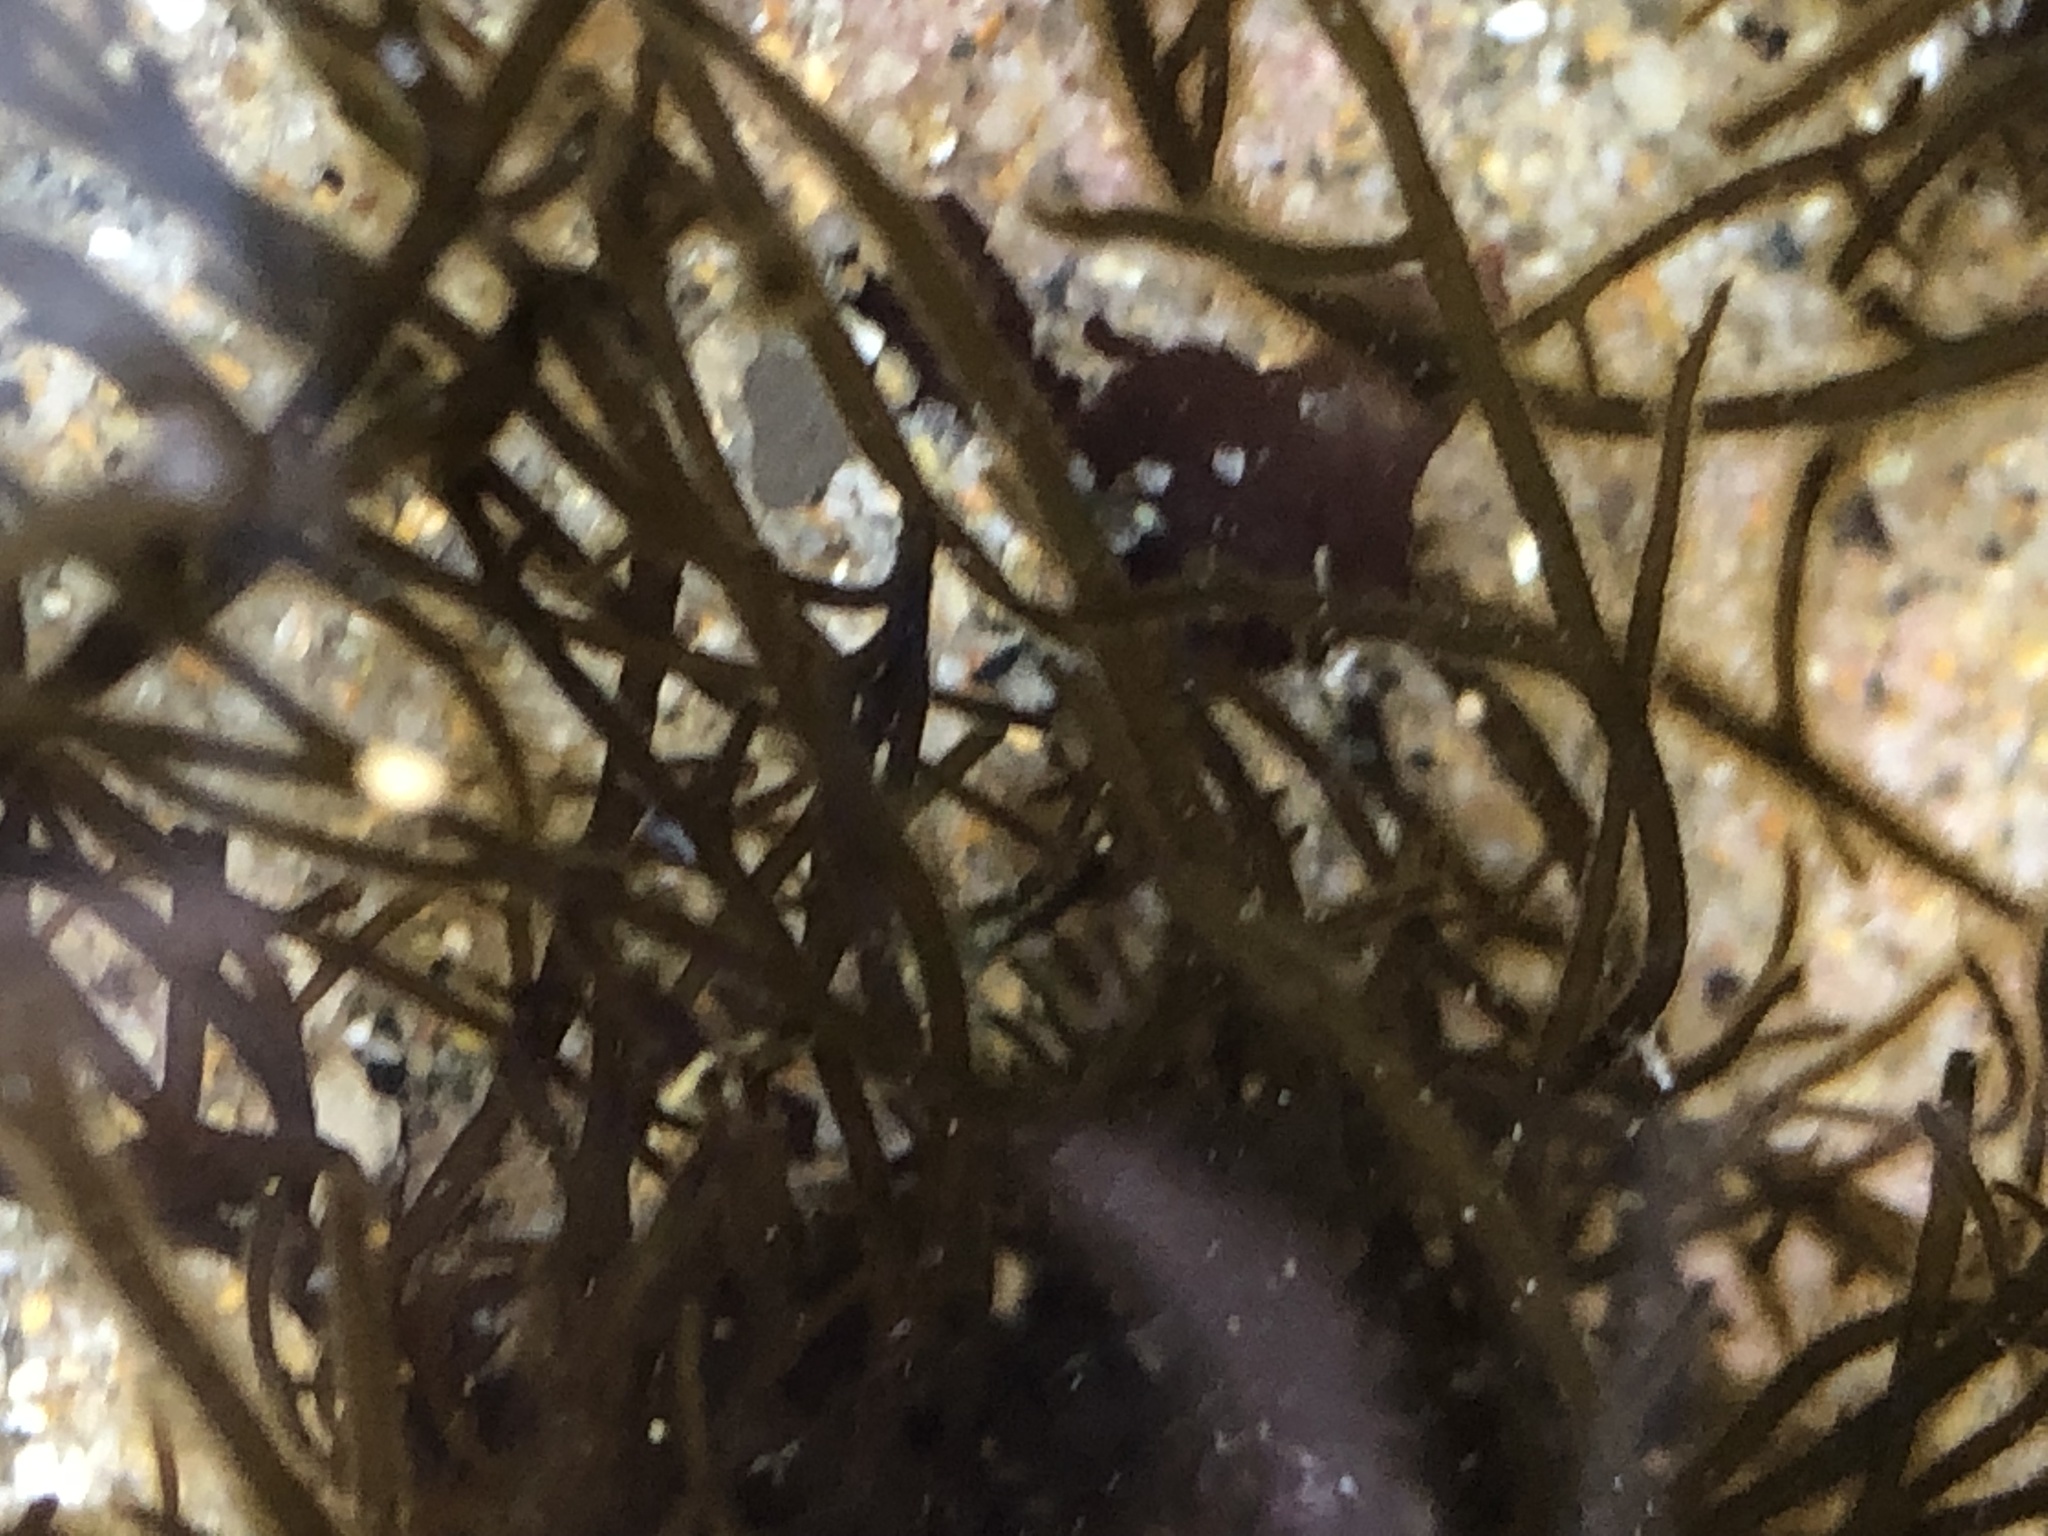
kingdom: Chromista
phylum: Ochrophyta
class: Phaeophyceae
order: Ectocarpales
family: Chordariaceae
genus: Haplogloia
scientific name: Haplogloia andersonii
